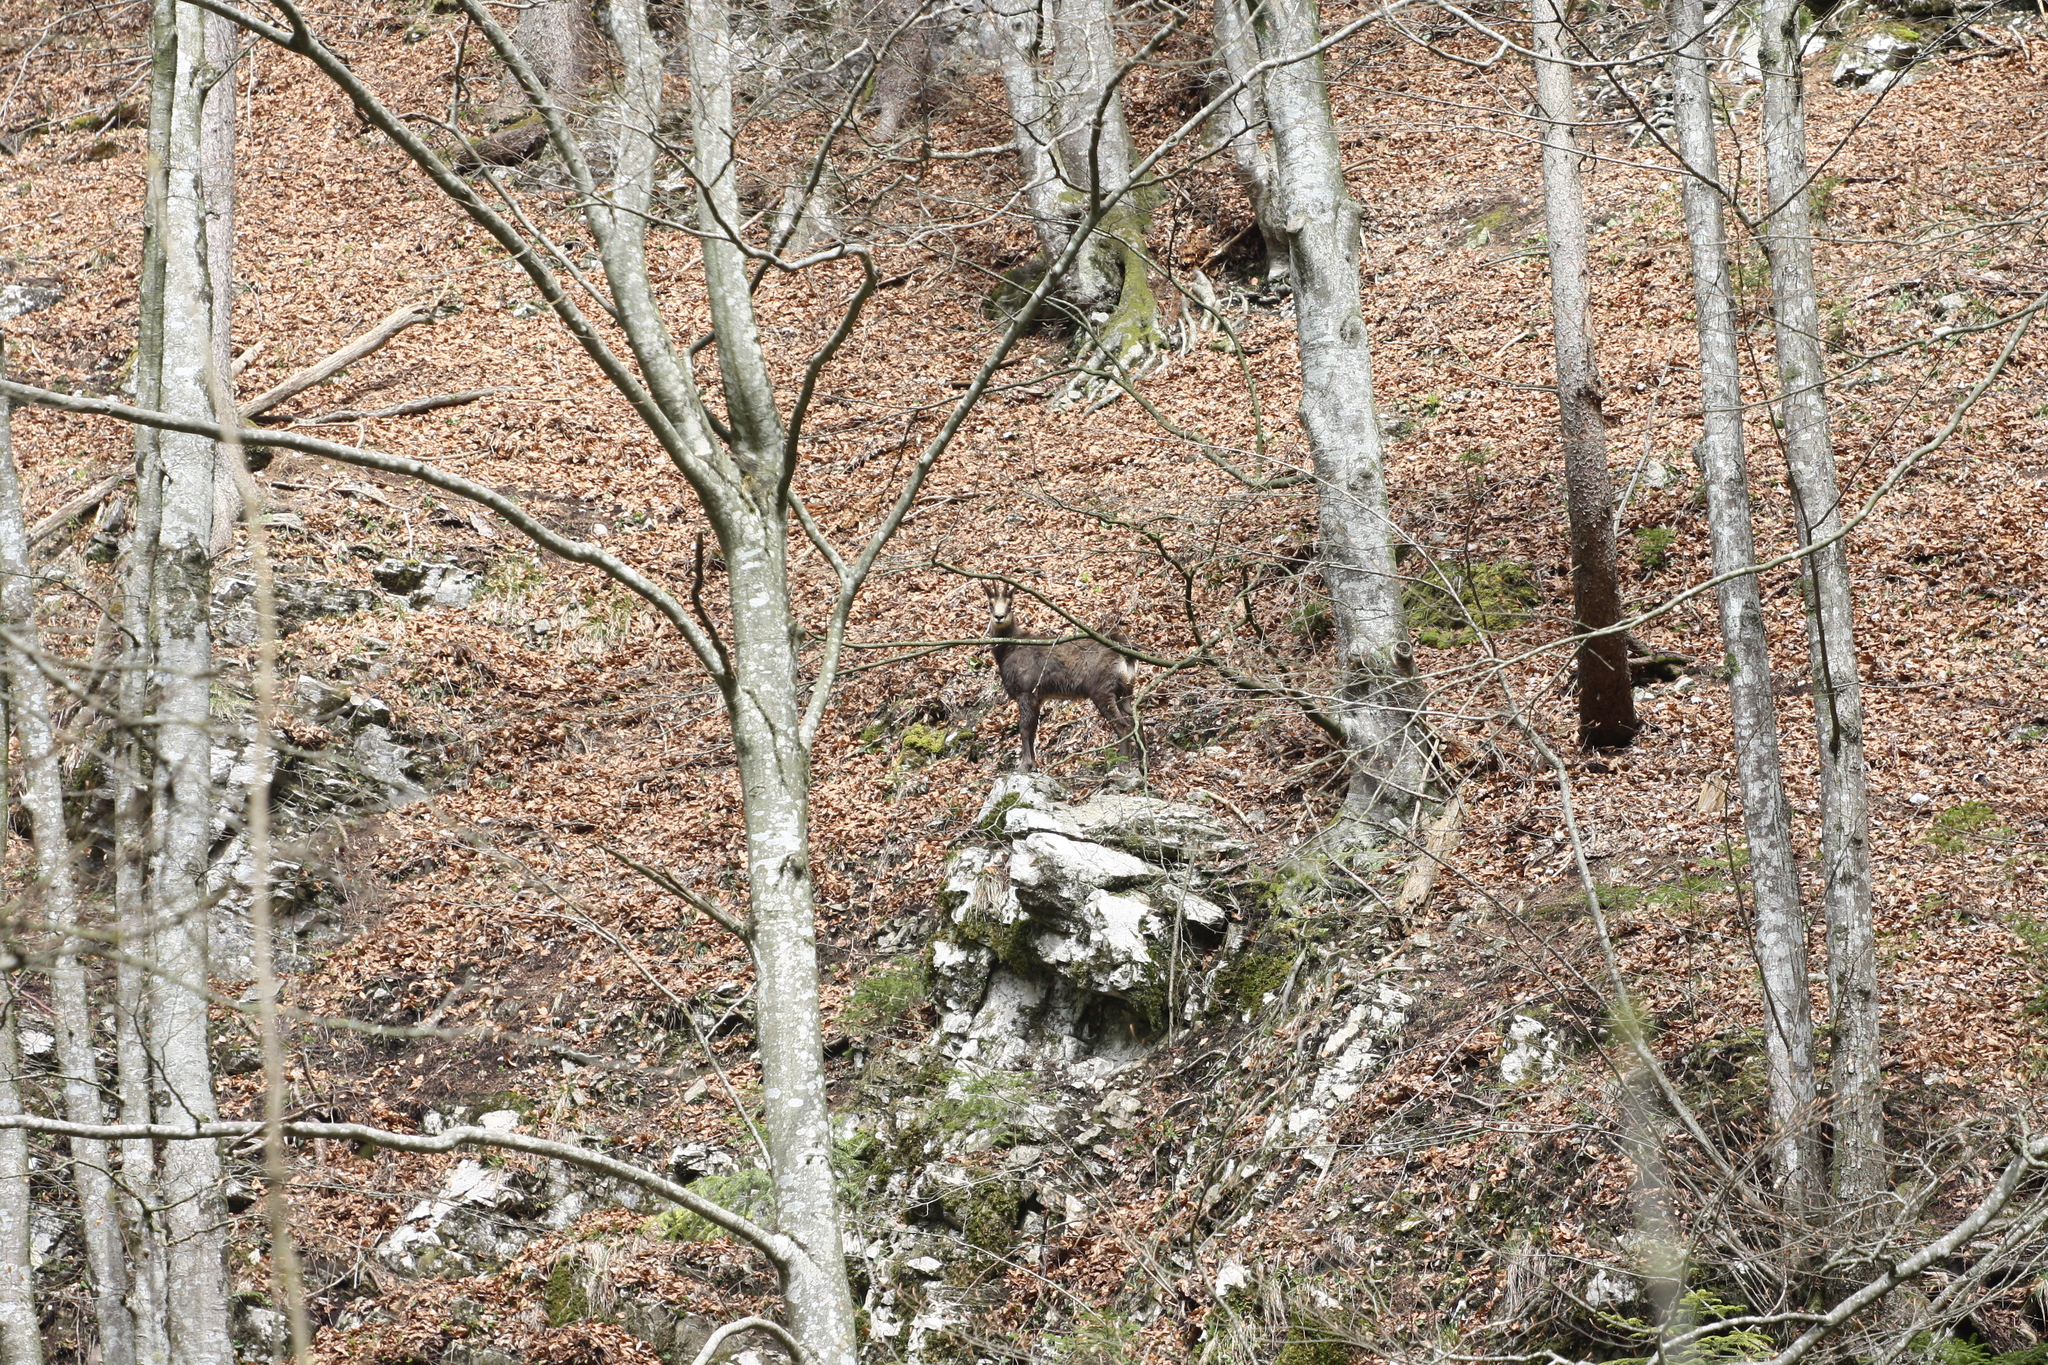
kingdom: Animalia
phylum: Chordata
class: Mammalia
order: Artiodactyla
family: Bovidae
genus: Rupicapra
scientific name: Rupicapra rupicapra
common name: Chamois
